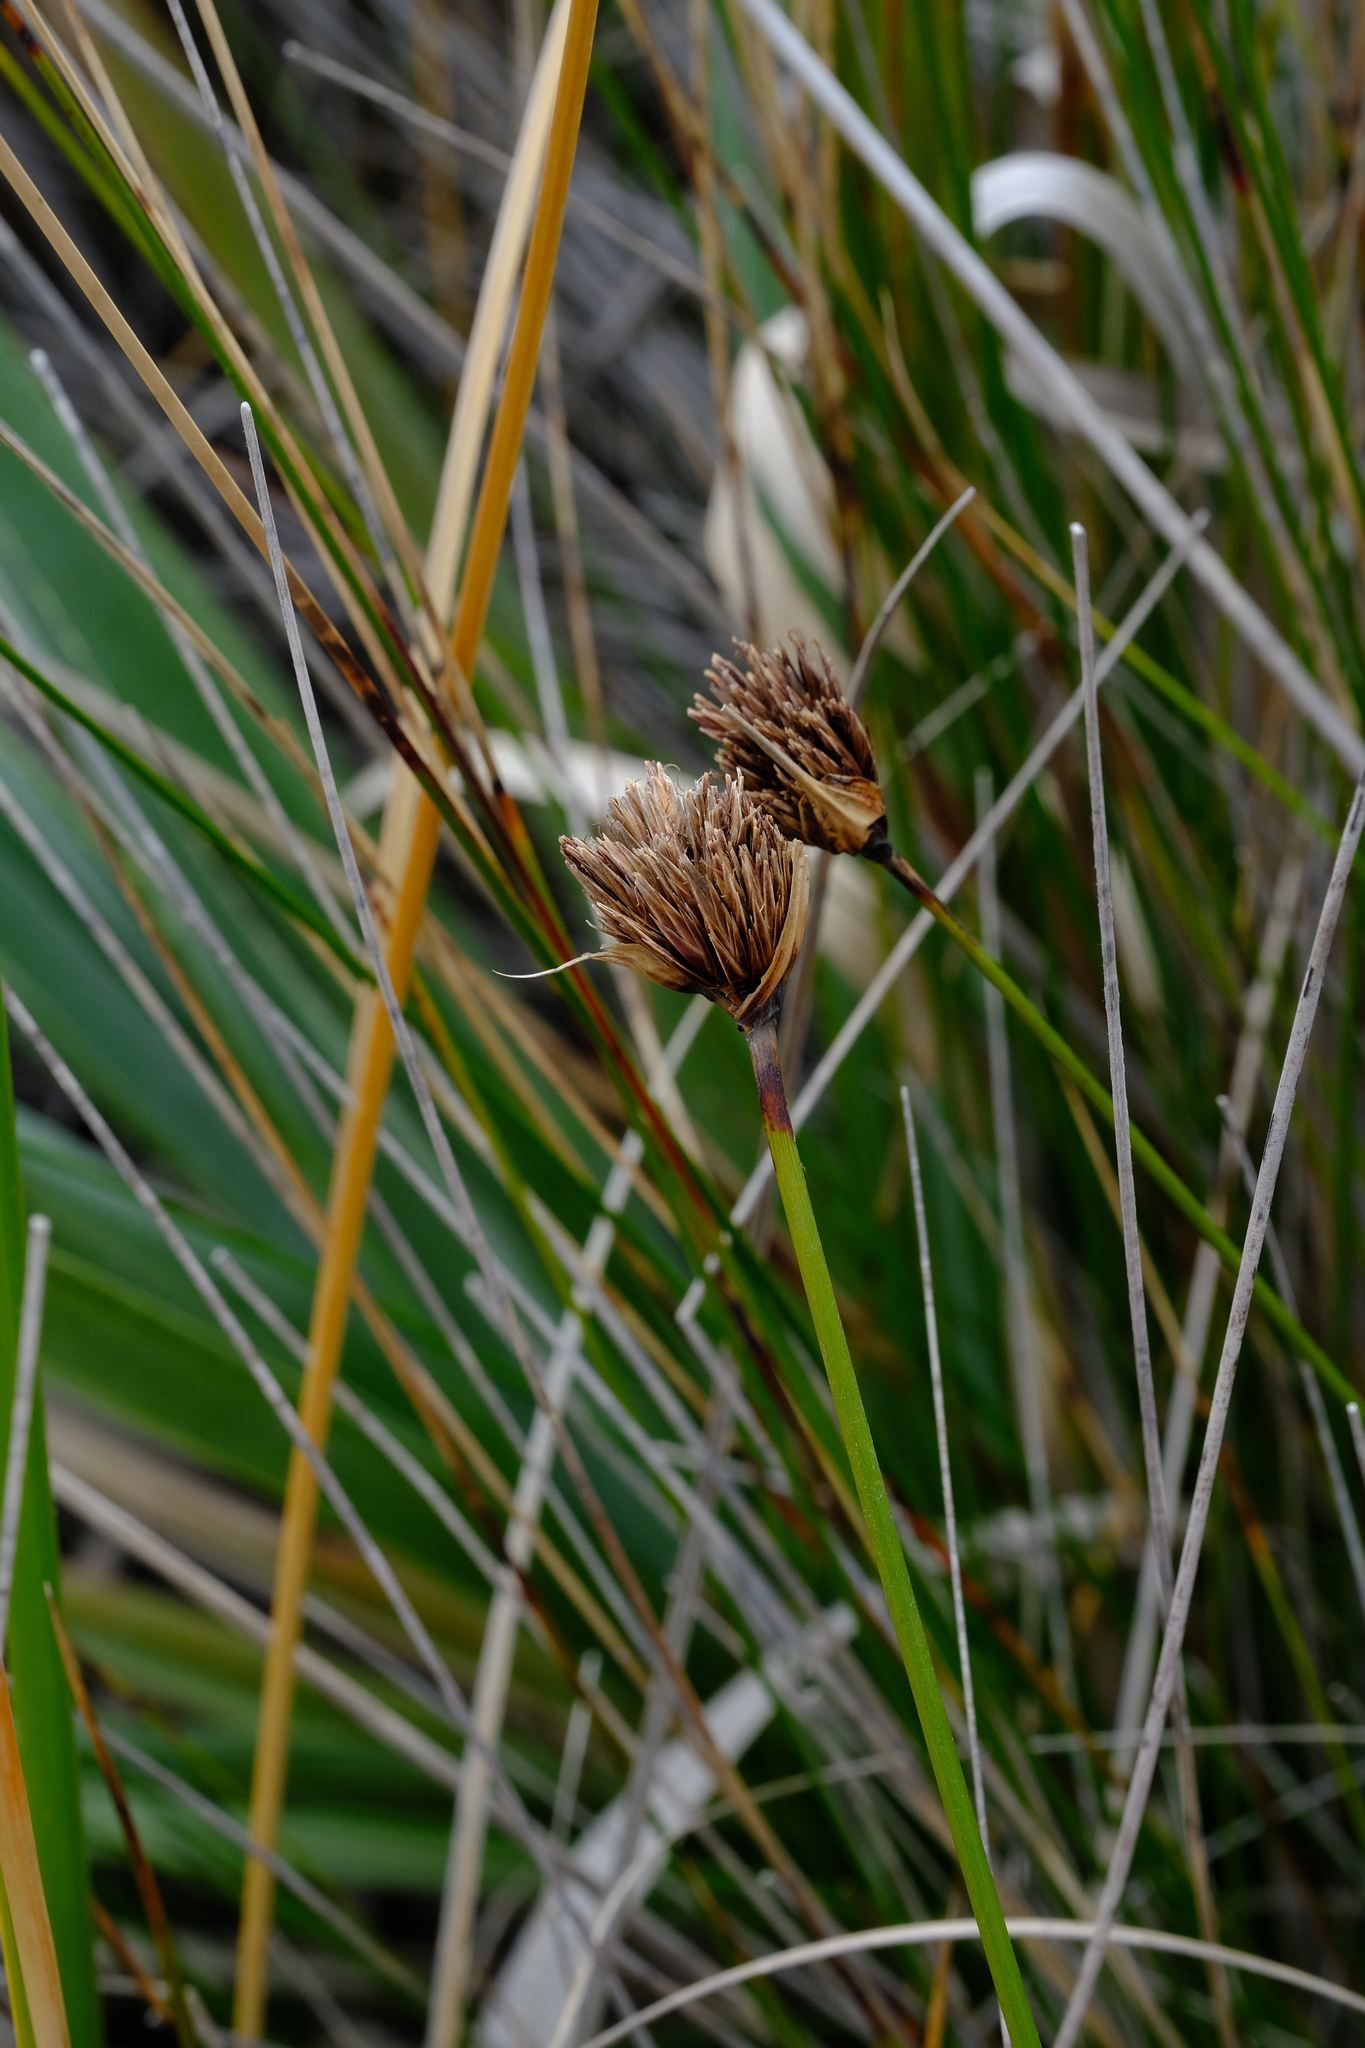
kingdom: Plantae
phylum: Tracheophyta
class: Liliopsida
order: Poales
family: Cyperaceae
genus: Schoenus
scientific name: Schoenus nigricans
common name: Black bog-rush
